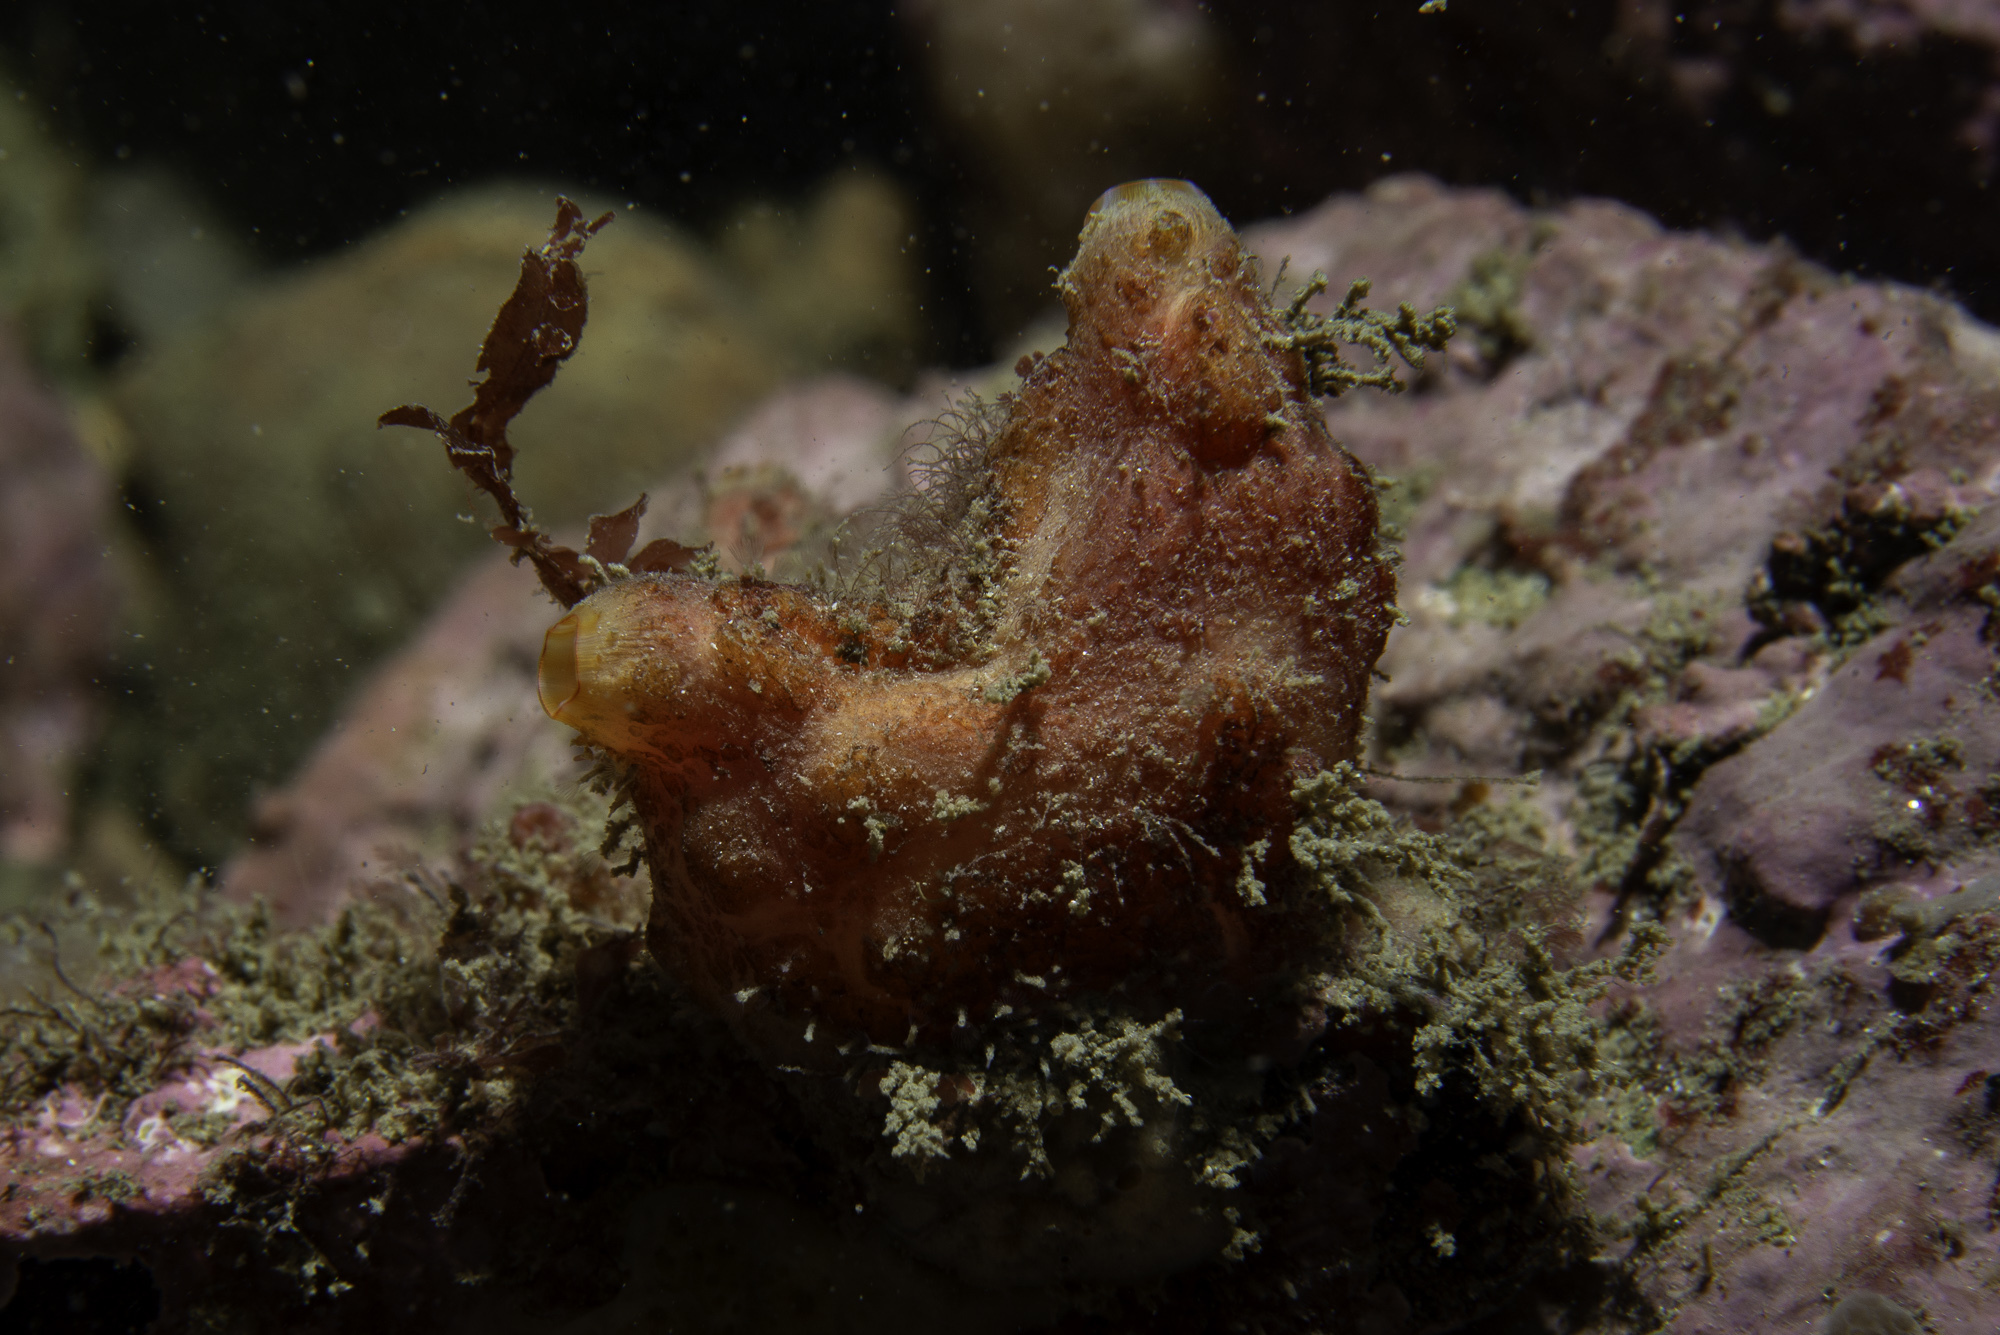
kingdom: Animalia
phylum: Chordata
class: Ascidiacea
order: Stolidobranchia
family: Pyuridae
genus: Pyura
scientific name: Pyura squamulosa
